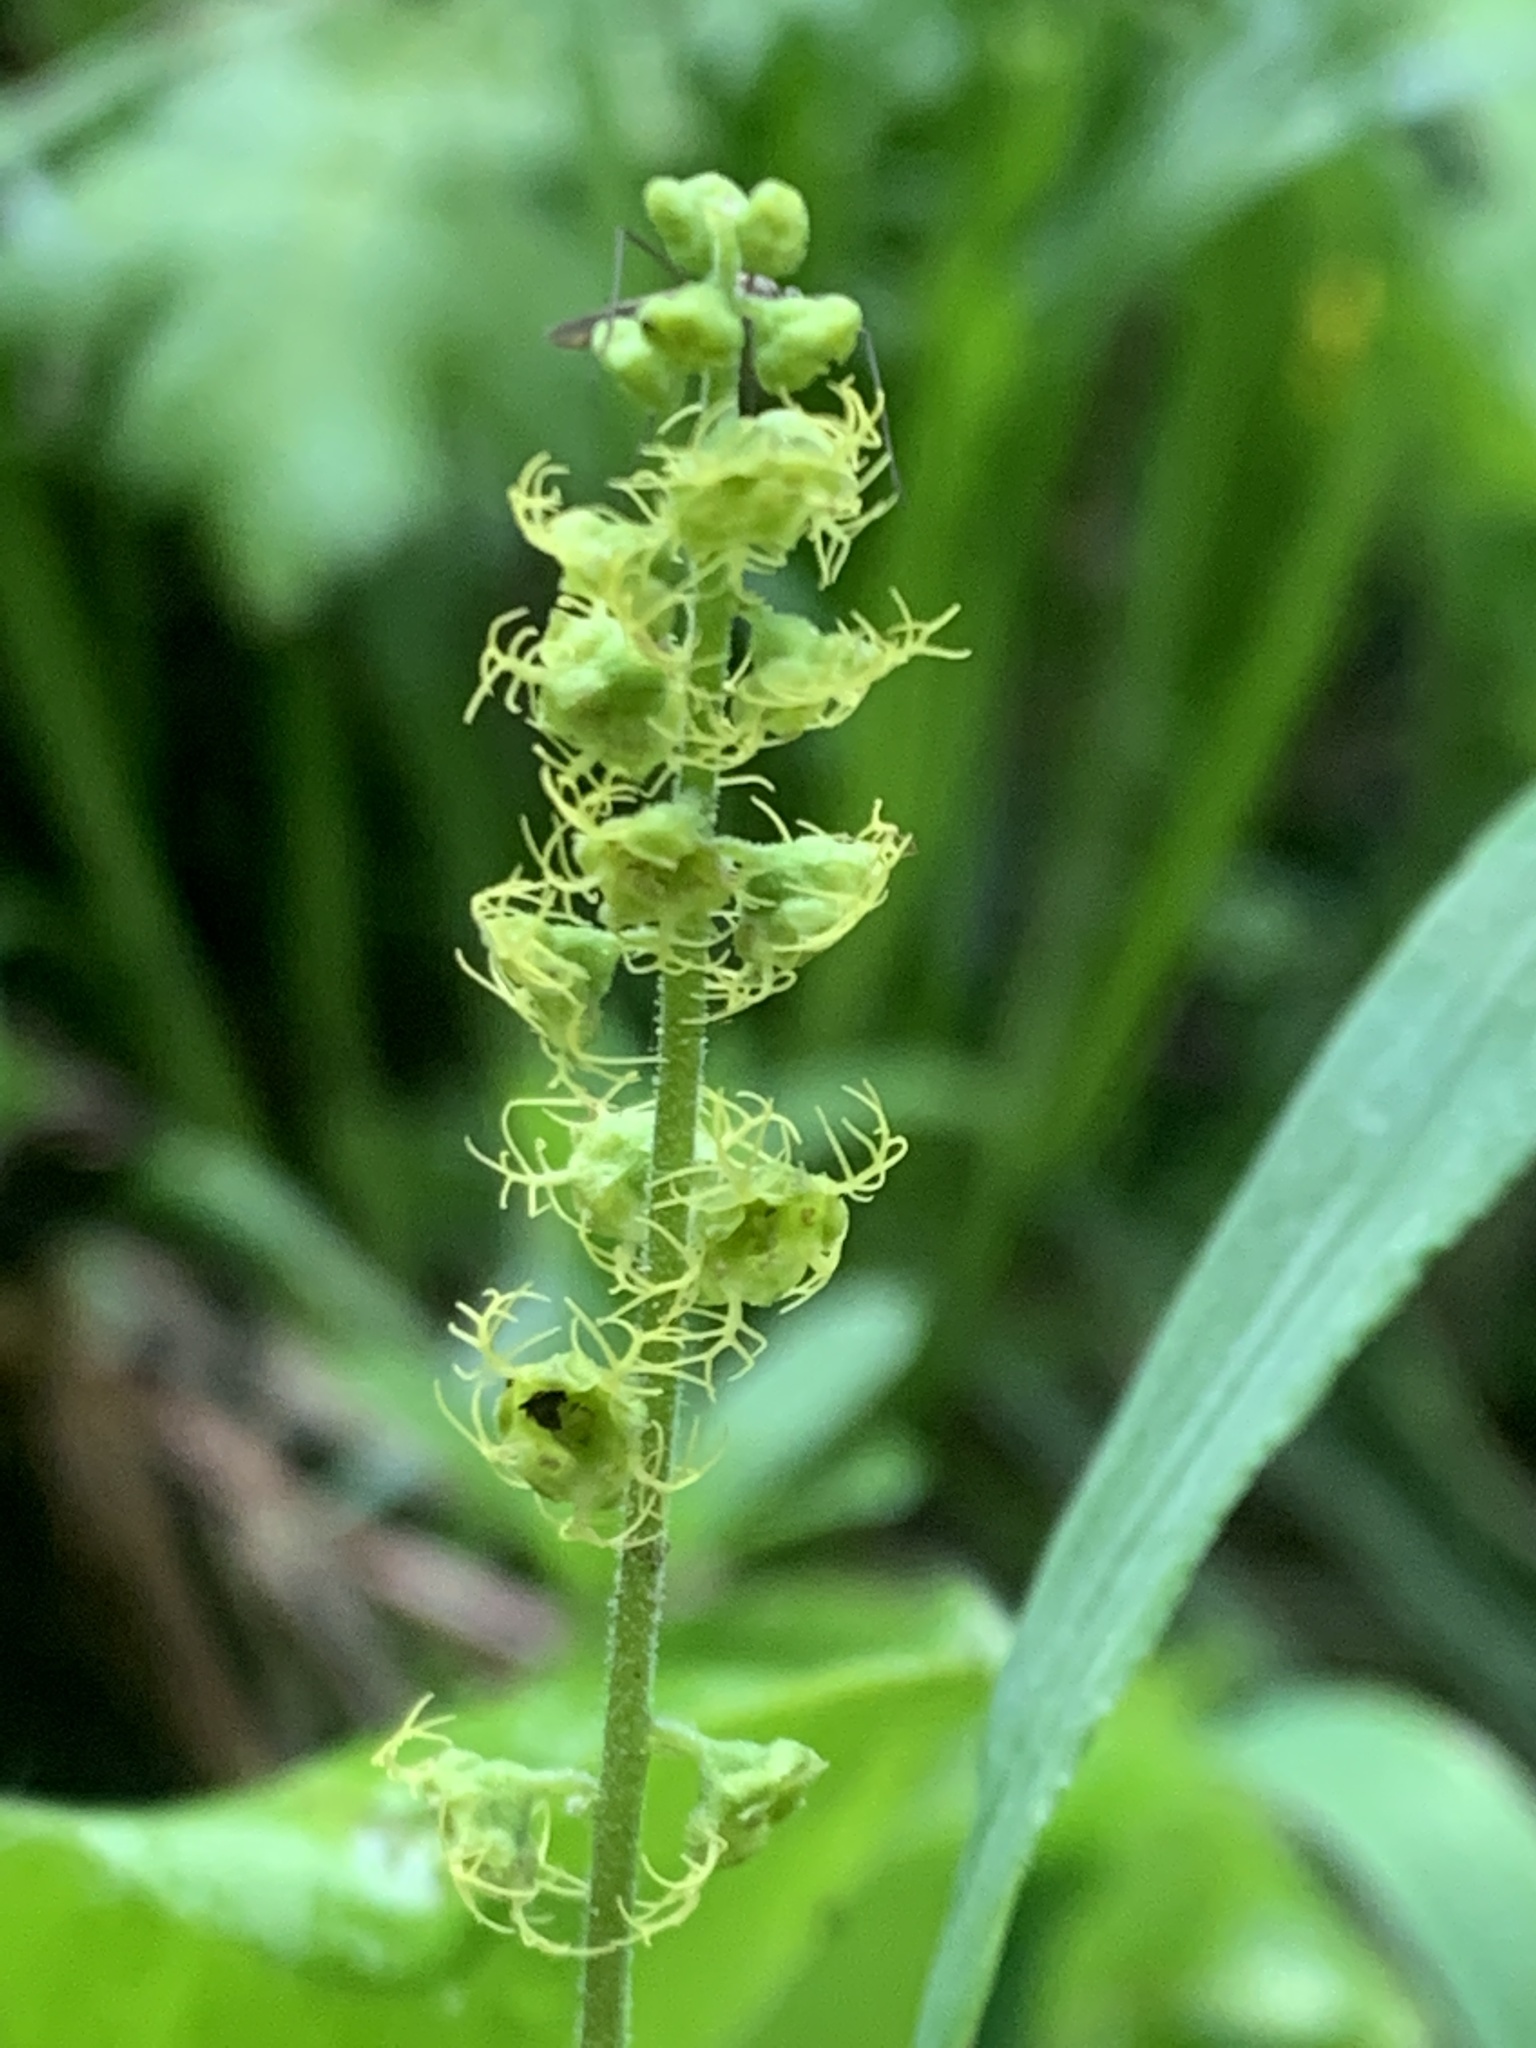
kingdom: Plantae
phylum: Tracheophyta
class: Magnoliopsida
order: Saxifragales
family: Saxifragaceae
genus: Brewerimitella
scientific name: Brewerimitella breweri
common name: Brewer's bishop's-cap
